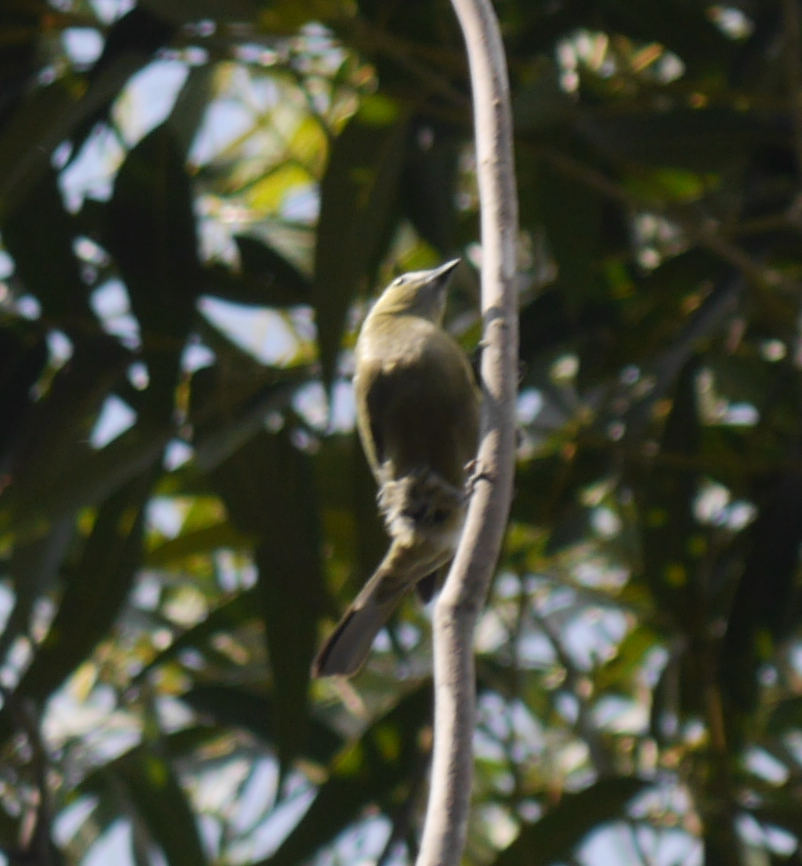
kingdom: Animalia
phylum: Chordata
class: Aves
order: Passeriformes
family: Thraupidae
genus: Thraupis
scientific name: Thraupis palmarum
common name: Palm tanager
